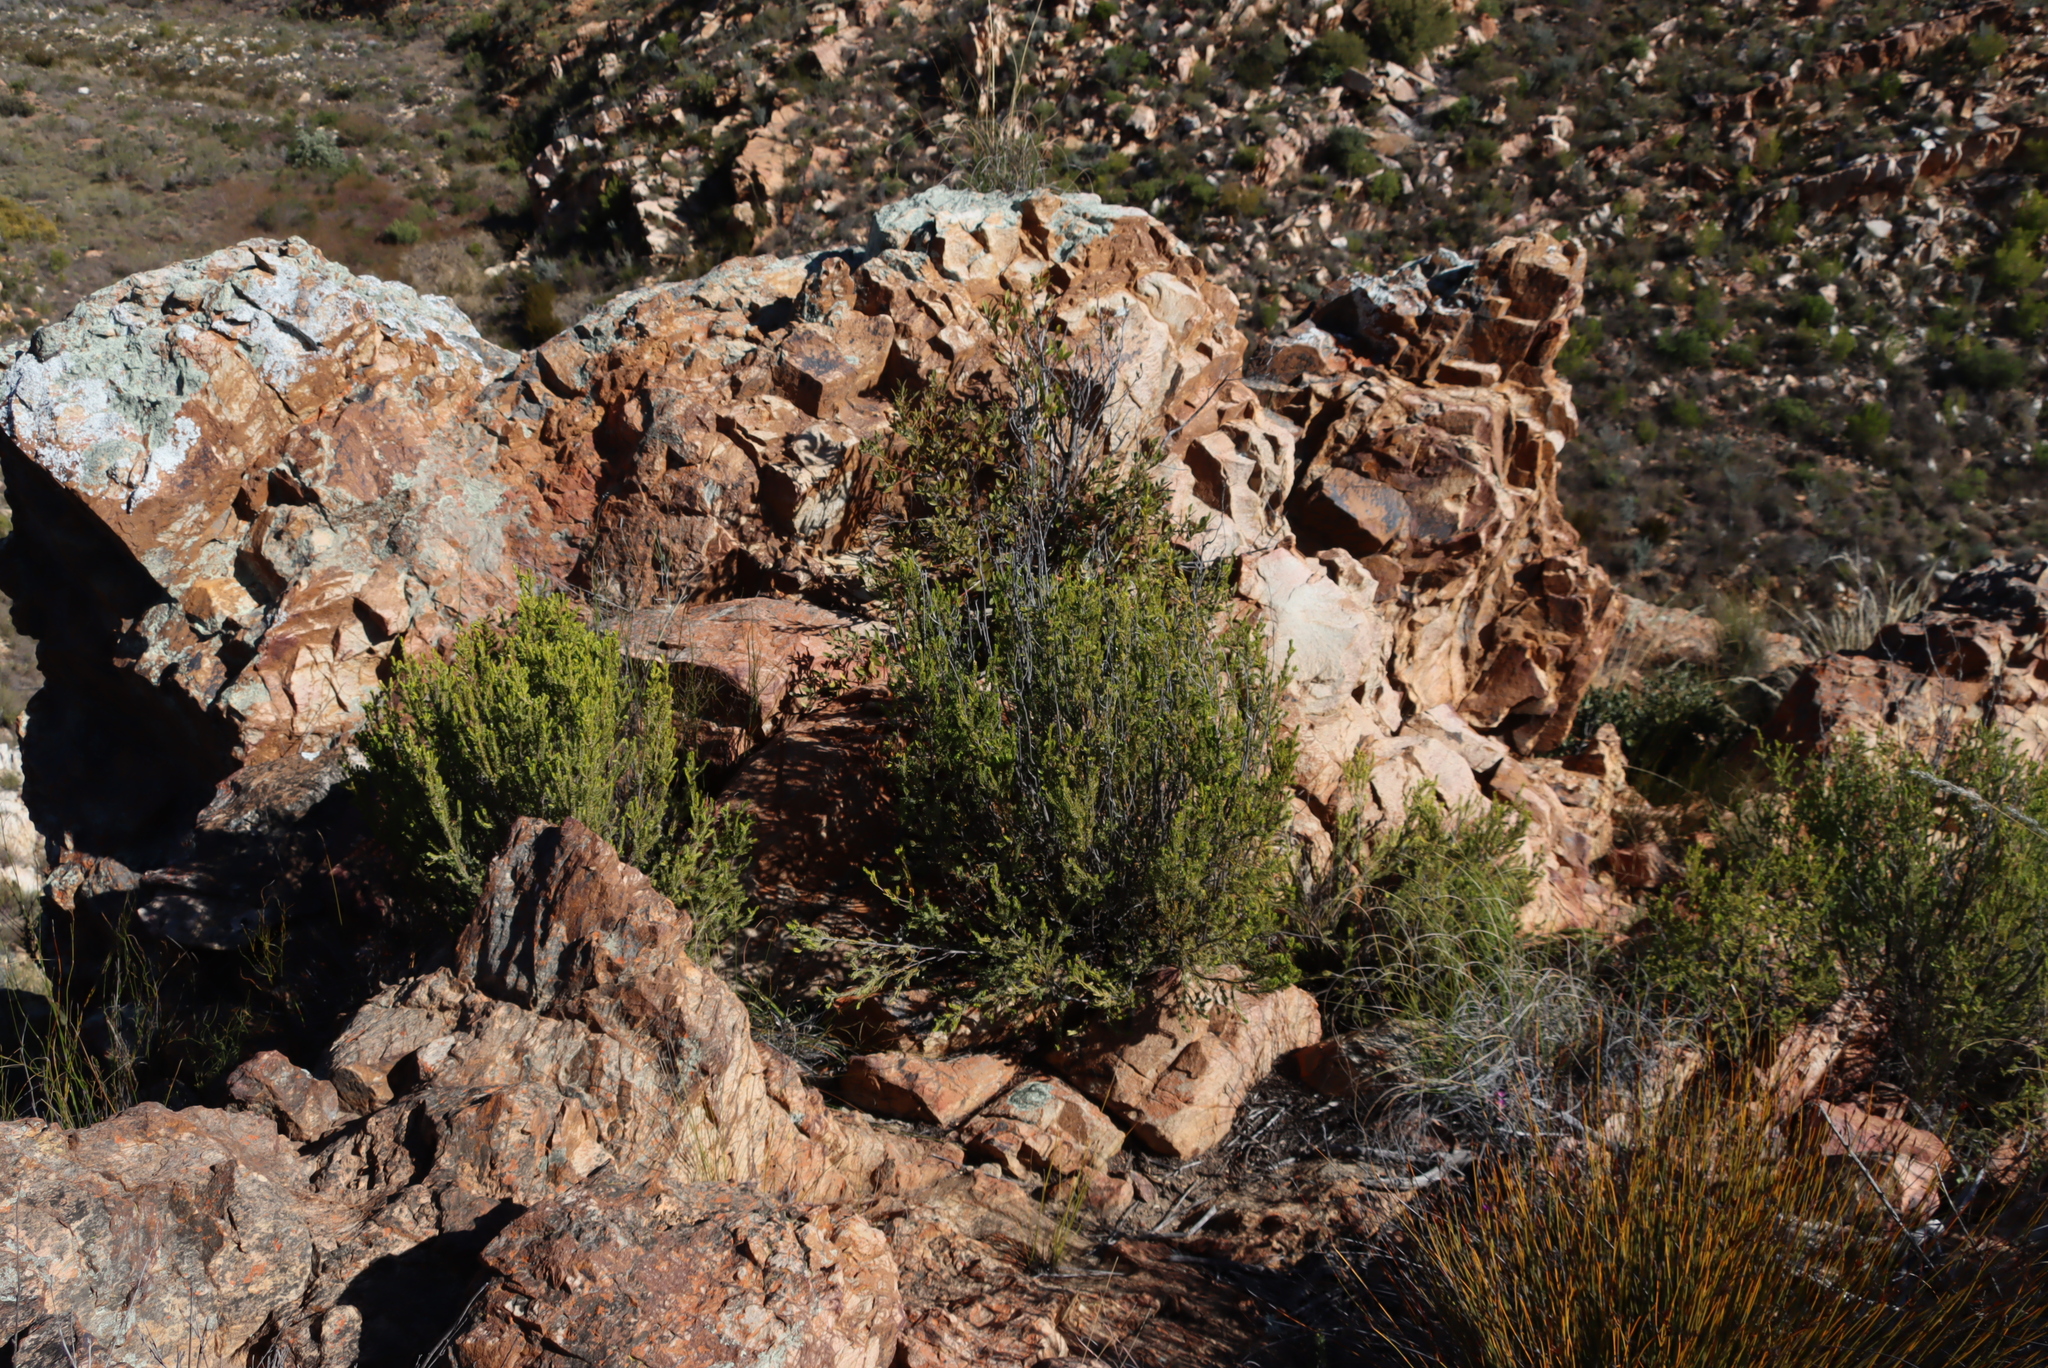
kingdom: Plantae
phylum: Tracheophyta
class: Magnoliopsida
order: Malvales
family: Thymelaeaceae
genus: Passerina
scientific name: Passerina obtusifolia
